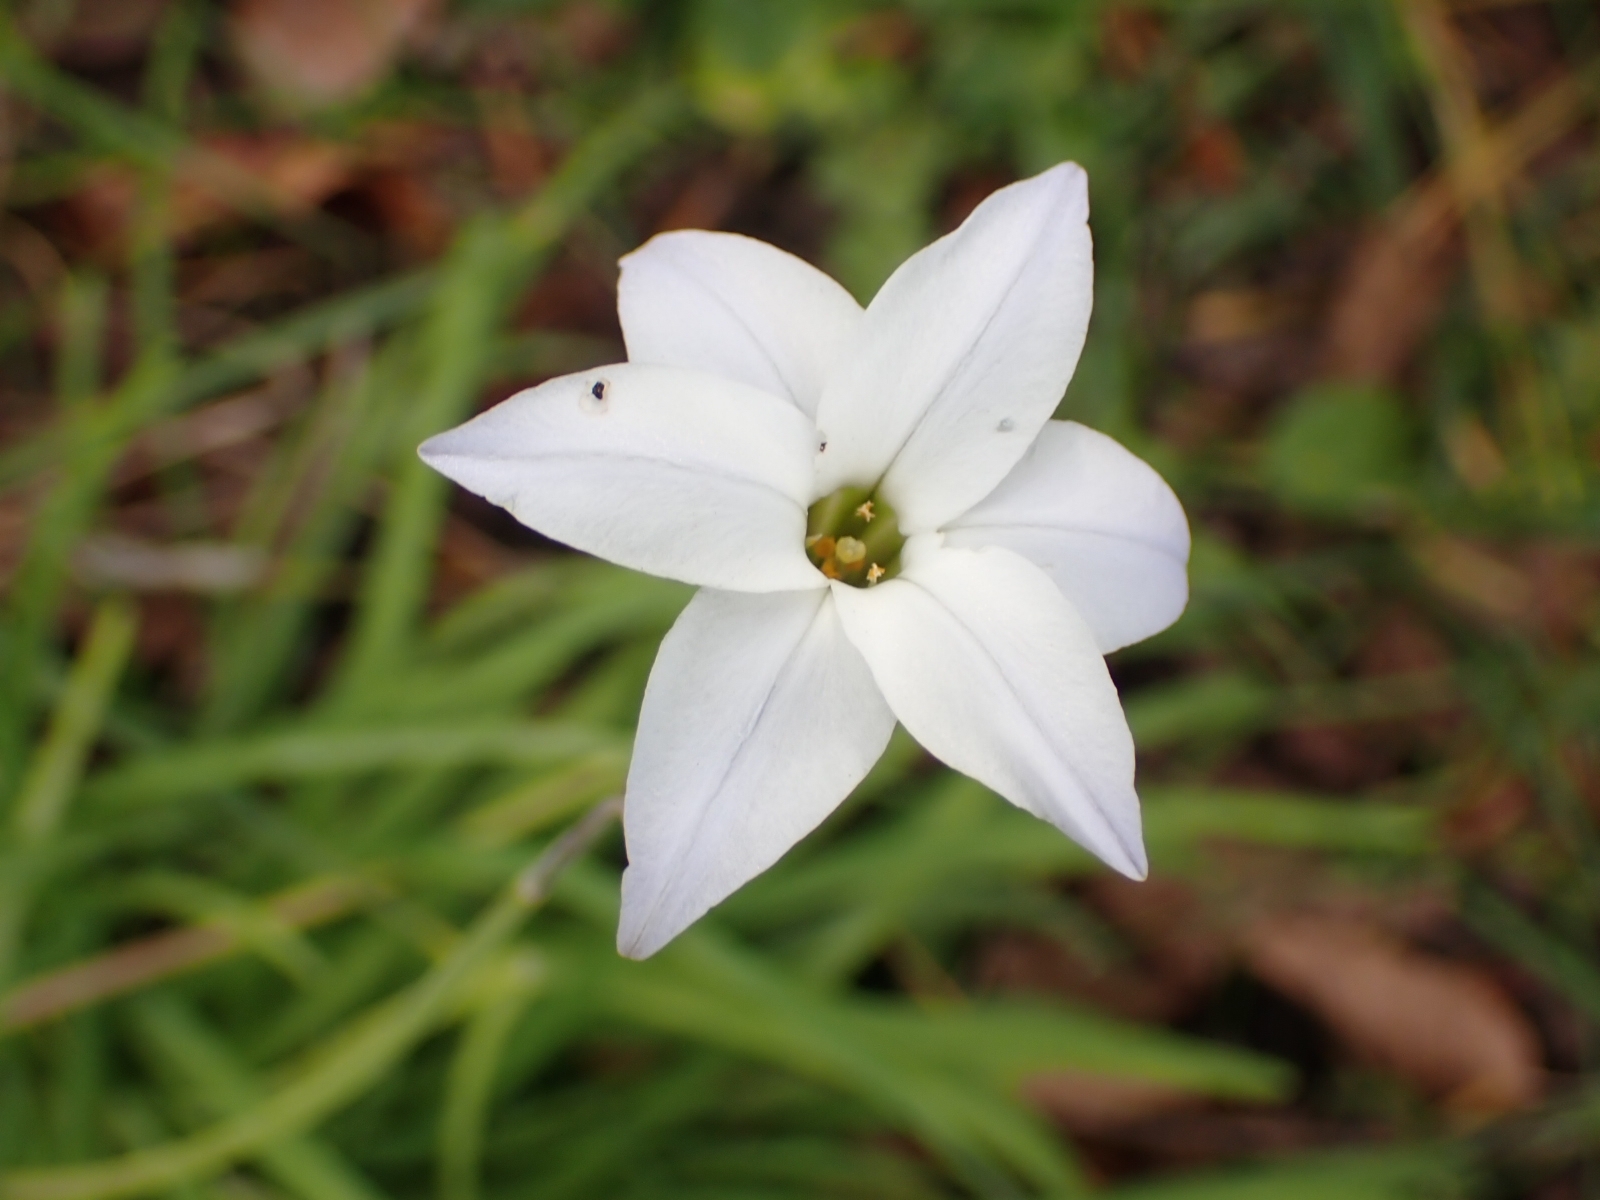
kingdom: Plantae
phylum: Tracheophyta
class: Liliopsida
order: Asparagales
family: Amaryllidaceae
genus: Ipheion
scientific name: Ipheion uniflorum
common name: Spring starflower
